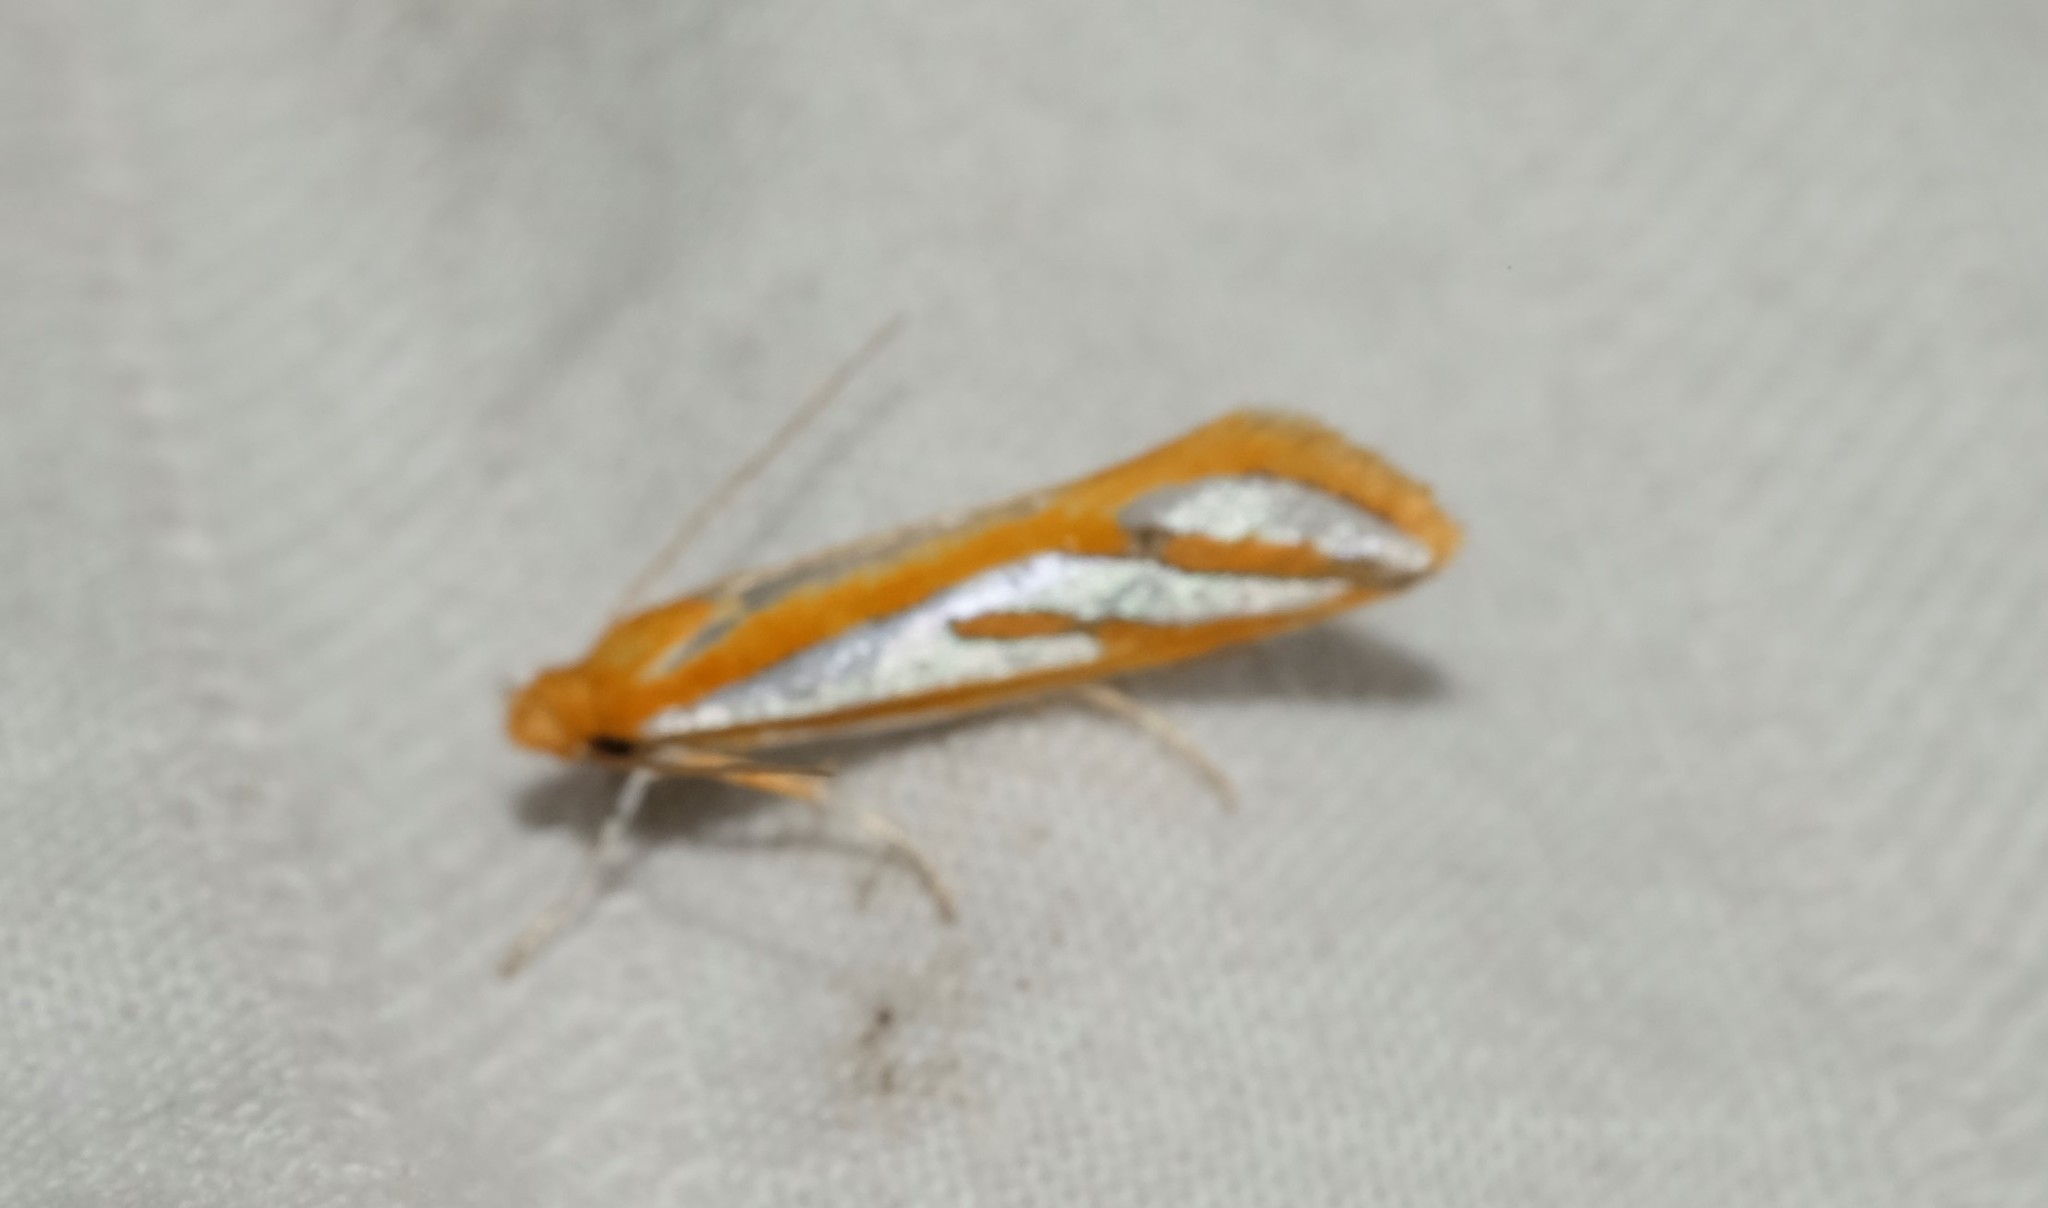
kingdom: Animalia
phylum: Arthropoda
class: Insecta
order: Lepidoptera
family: Depressariidae
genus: Thudaca
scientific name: Thudaca haplonota
